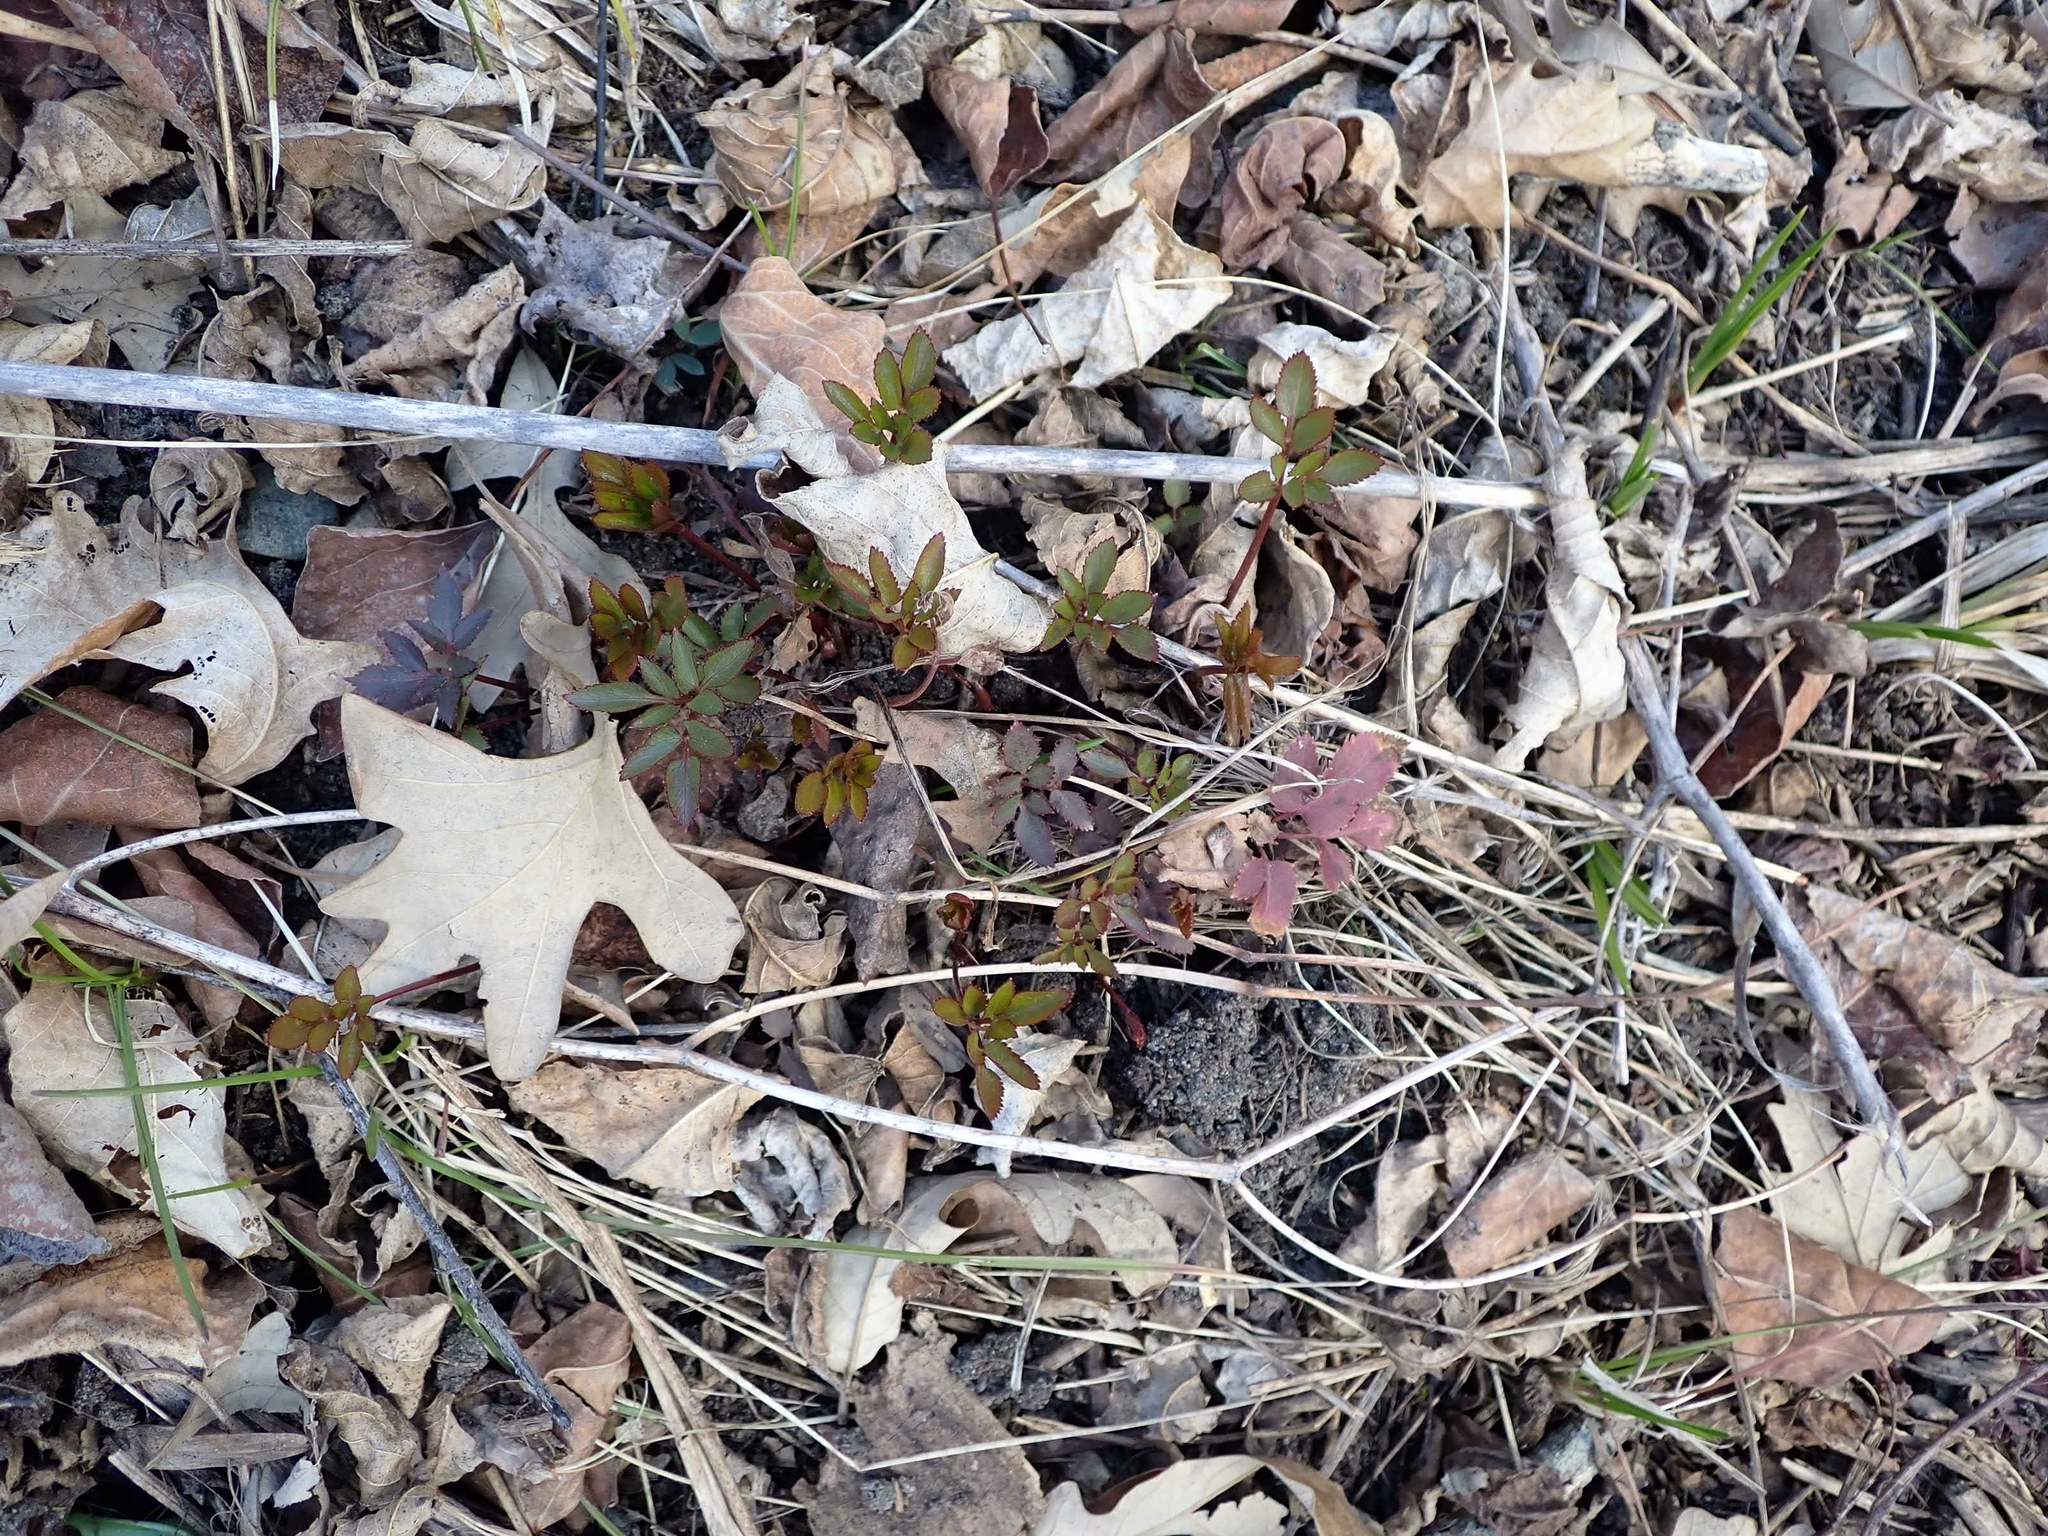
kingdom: Plantae
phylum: Tracheophyta
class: Magnoliopsida
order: Apiales
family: Apiaceae
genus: Zizia
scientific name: Zizia aurea
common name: Golden alexanders
